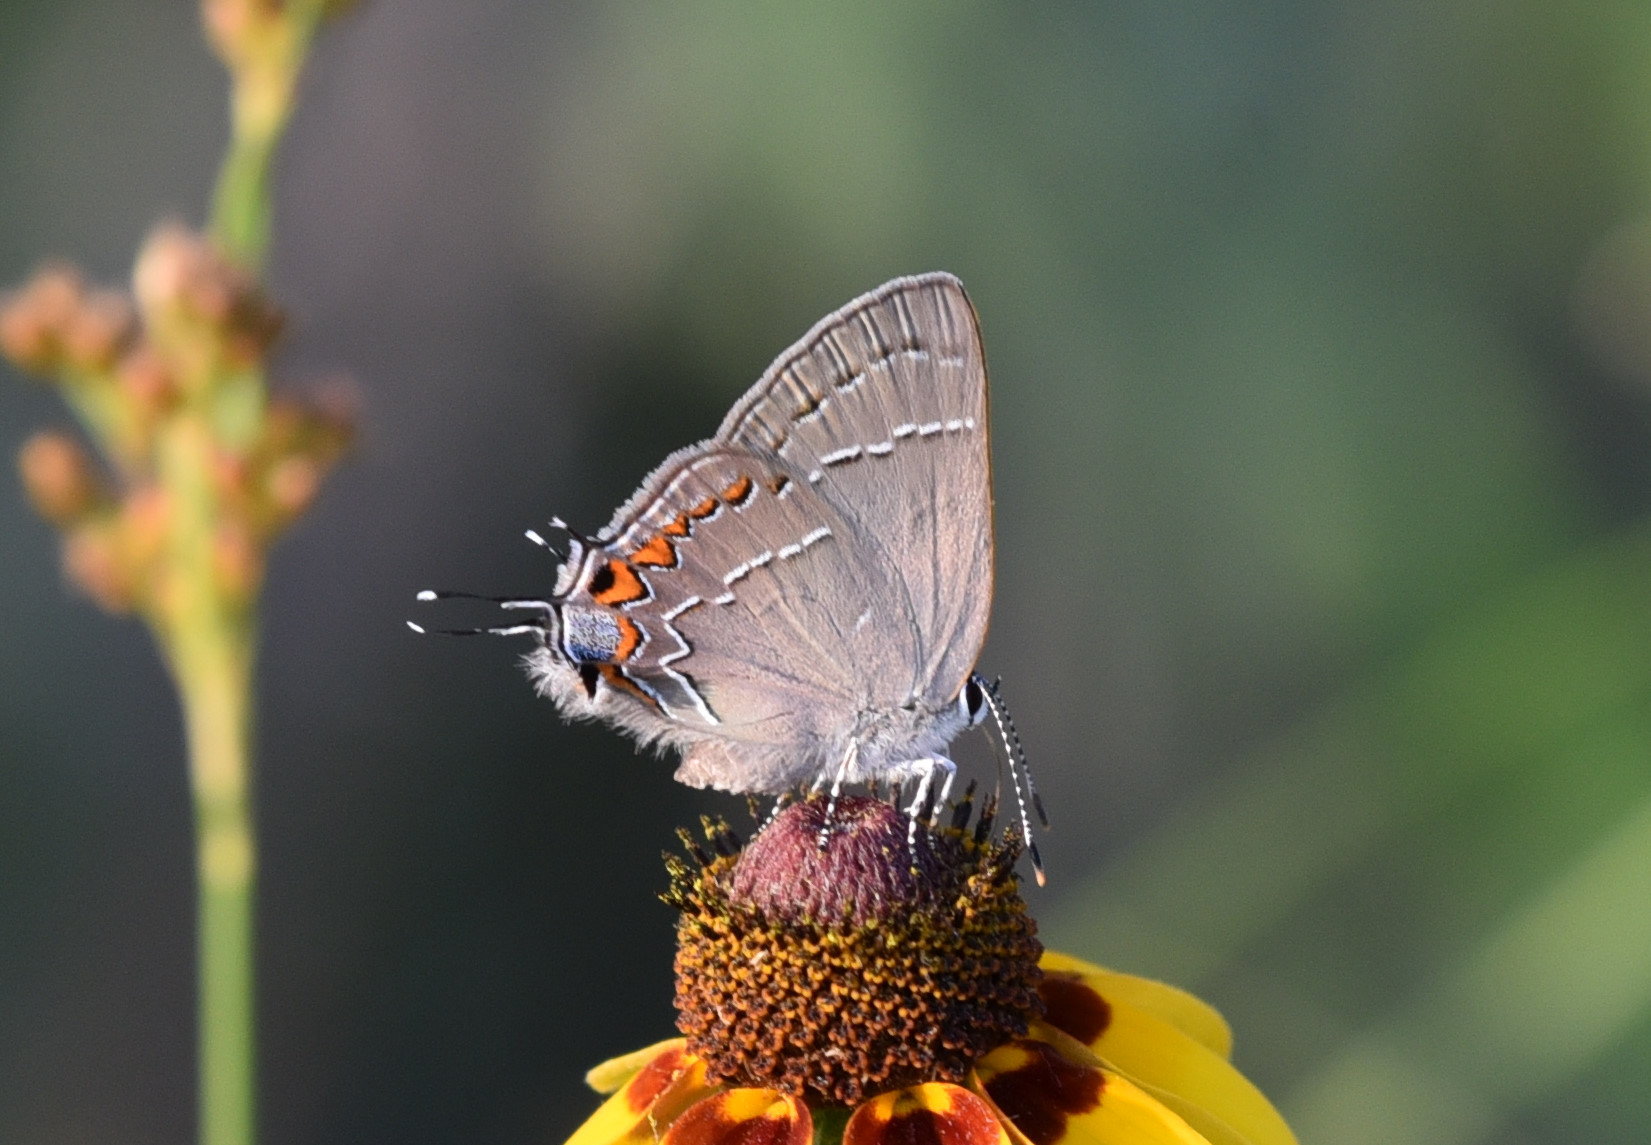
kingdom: Animalia
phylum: Arthropoda
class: Insecta
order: Lepidoptera
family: Lycaenidae
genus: Fixsenia
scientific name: Fixsenia favonius
